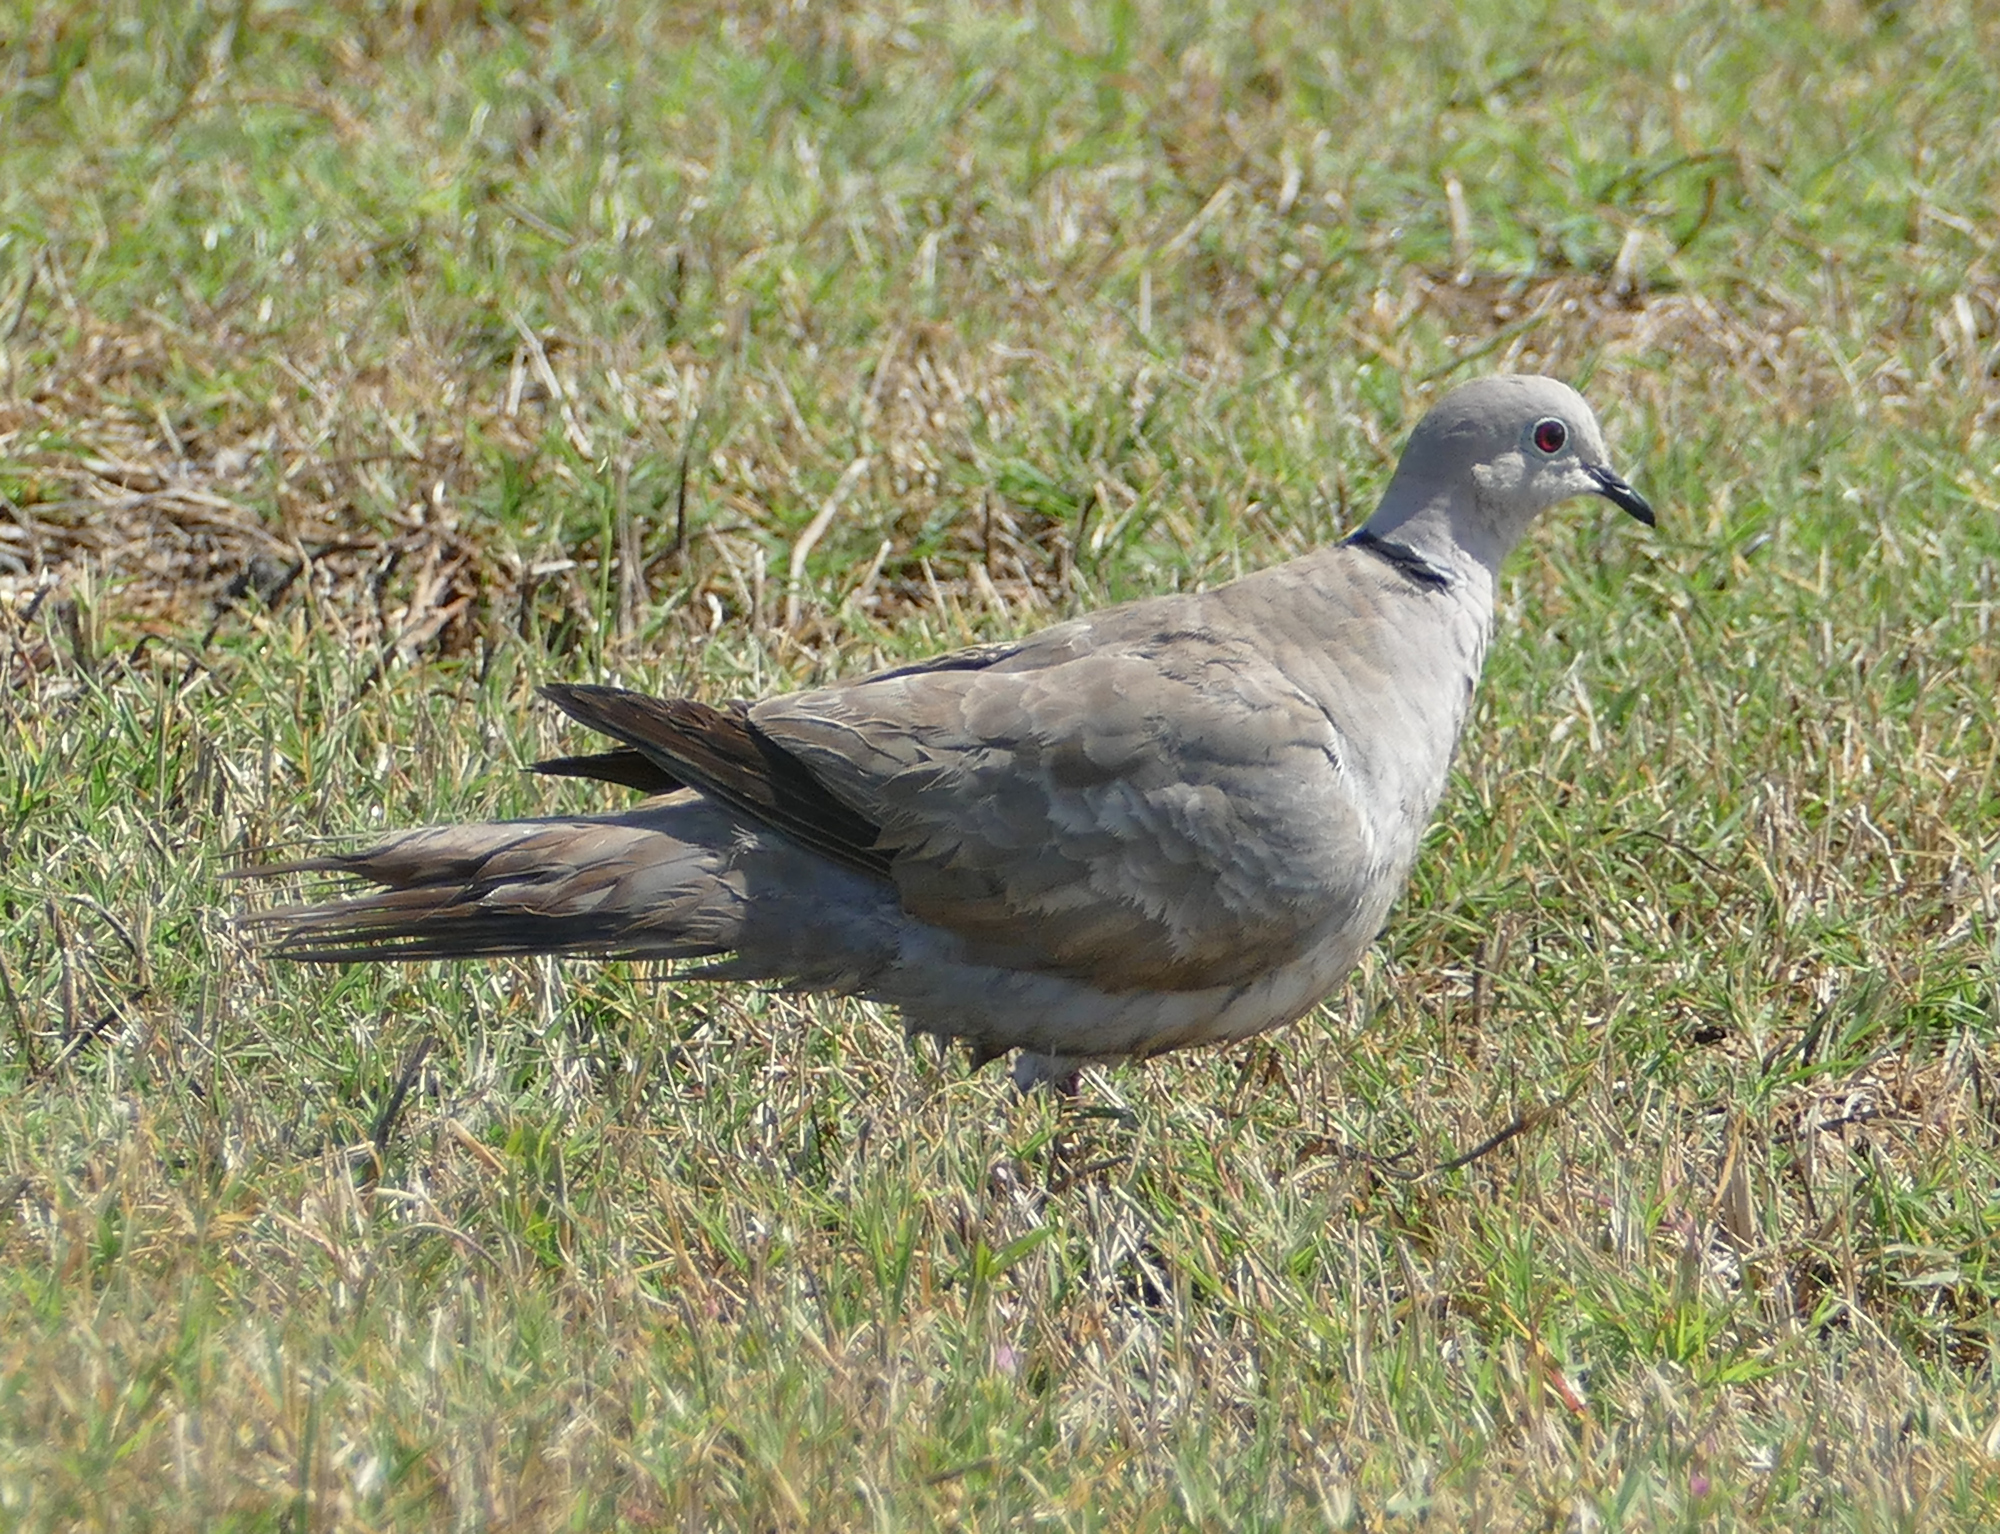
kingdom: Animalia
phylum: Chordata
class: Aves
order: Columbiformes
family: Columbidae
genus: Streptopelia
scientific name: Streptopelia decaocto
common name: Eurasian collared dove
